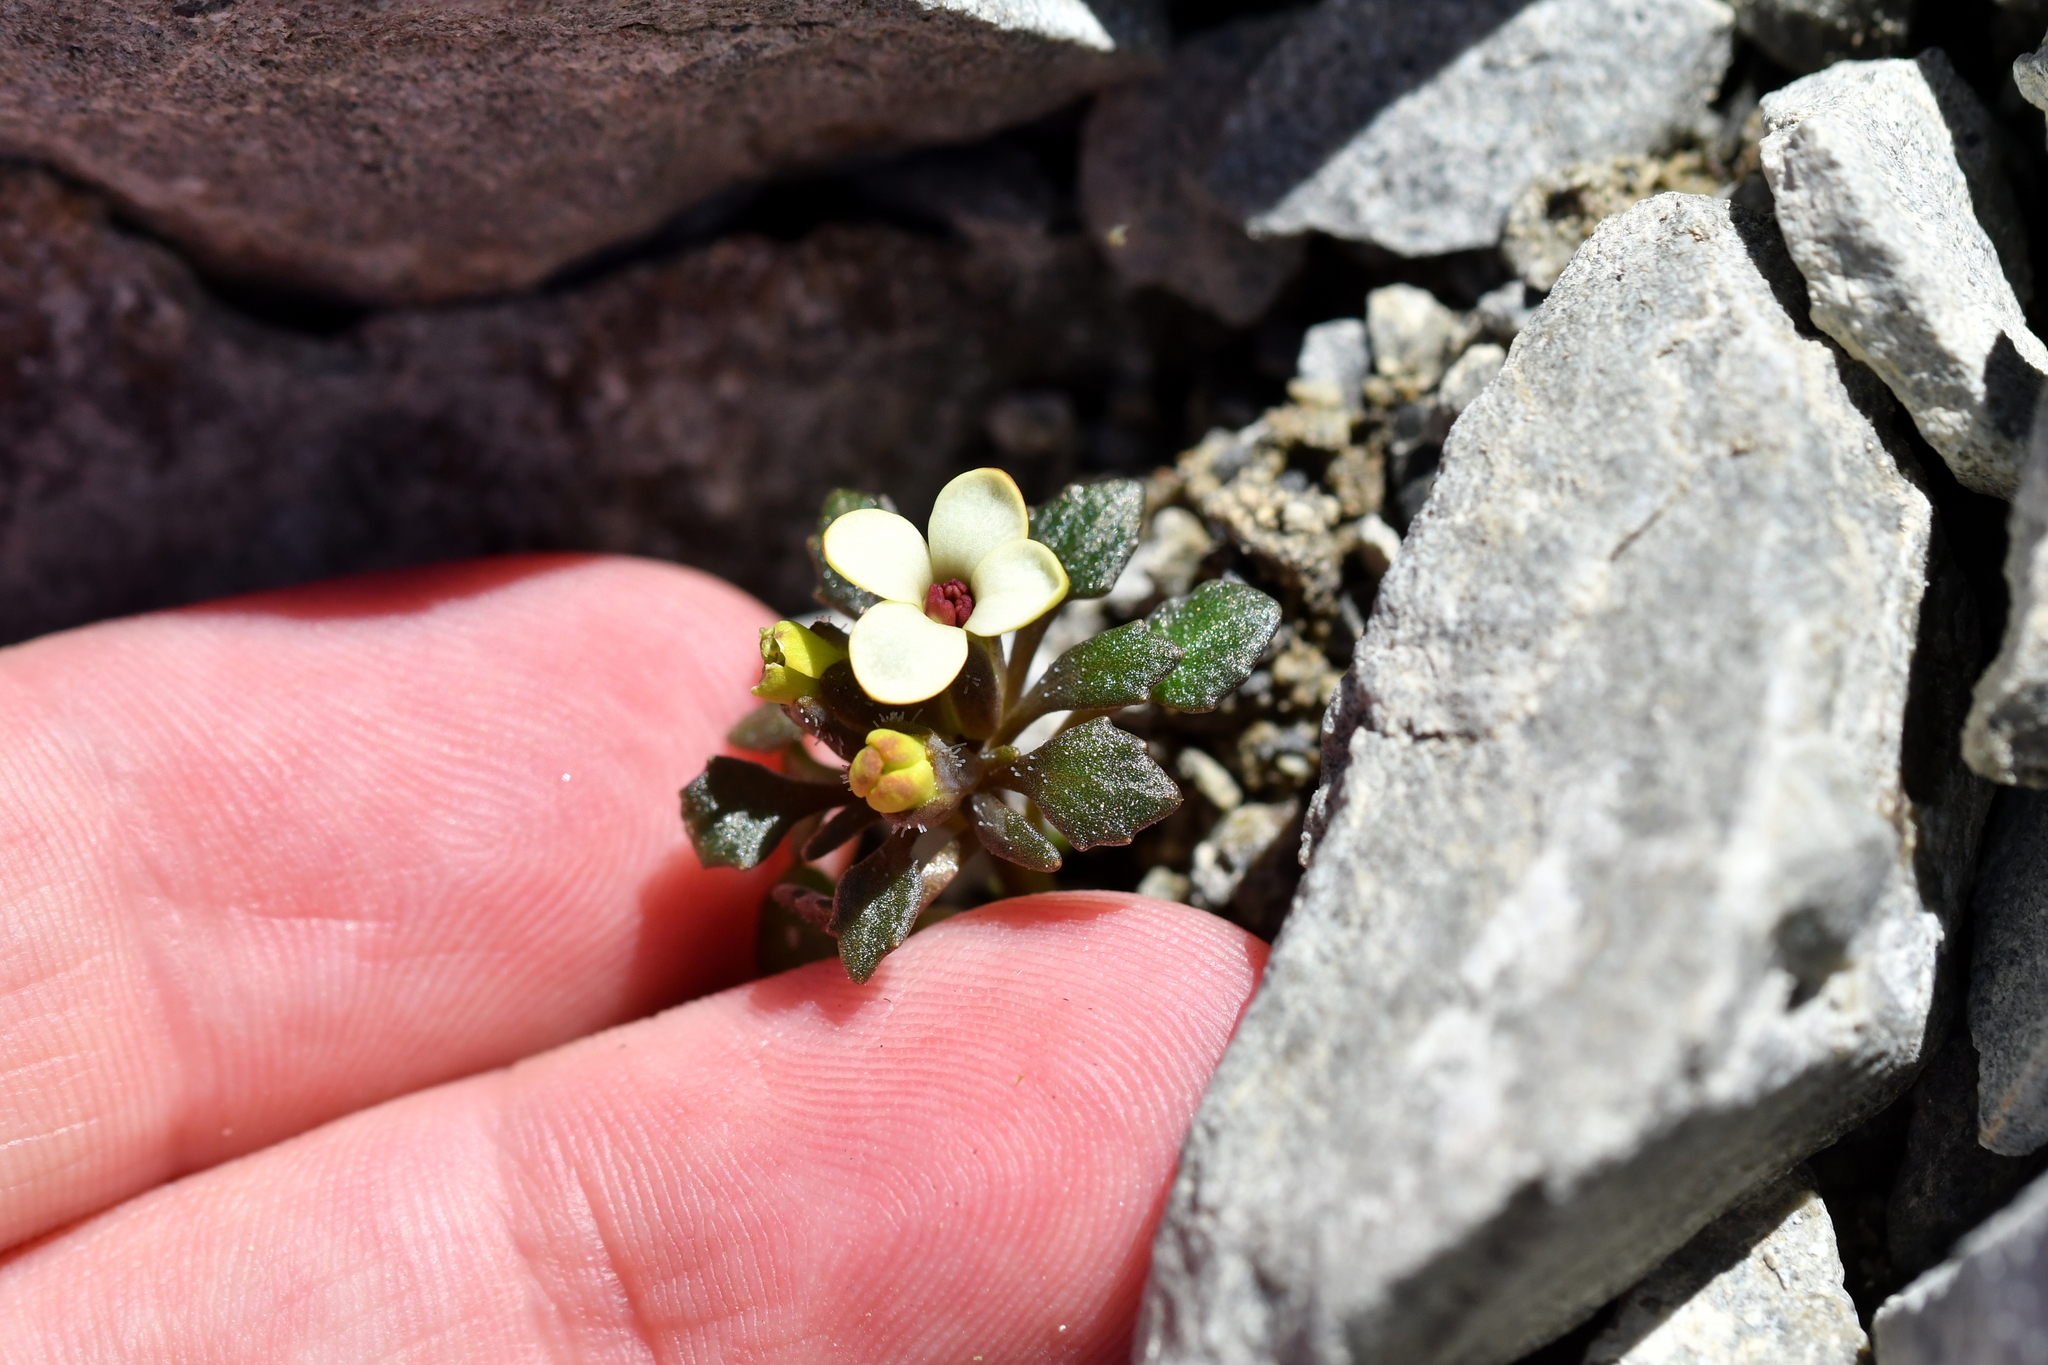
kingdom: Plantae
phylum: Tracheophyta
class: Magnoliopsida
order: Brassicales
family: Brassicaceae
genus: Notothlaspi
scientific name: Notothlaspi rosulatum
